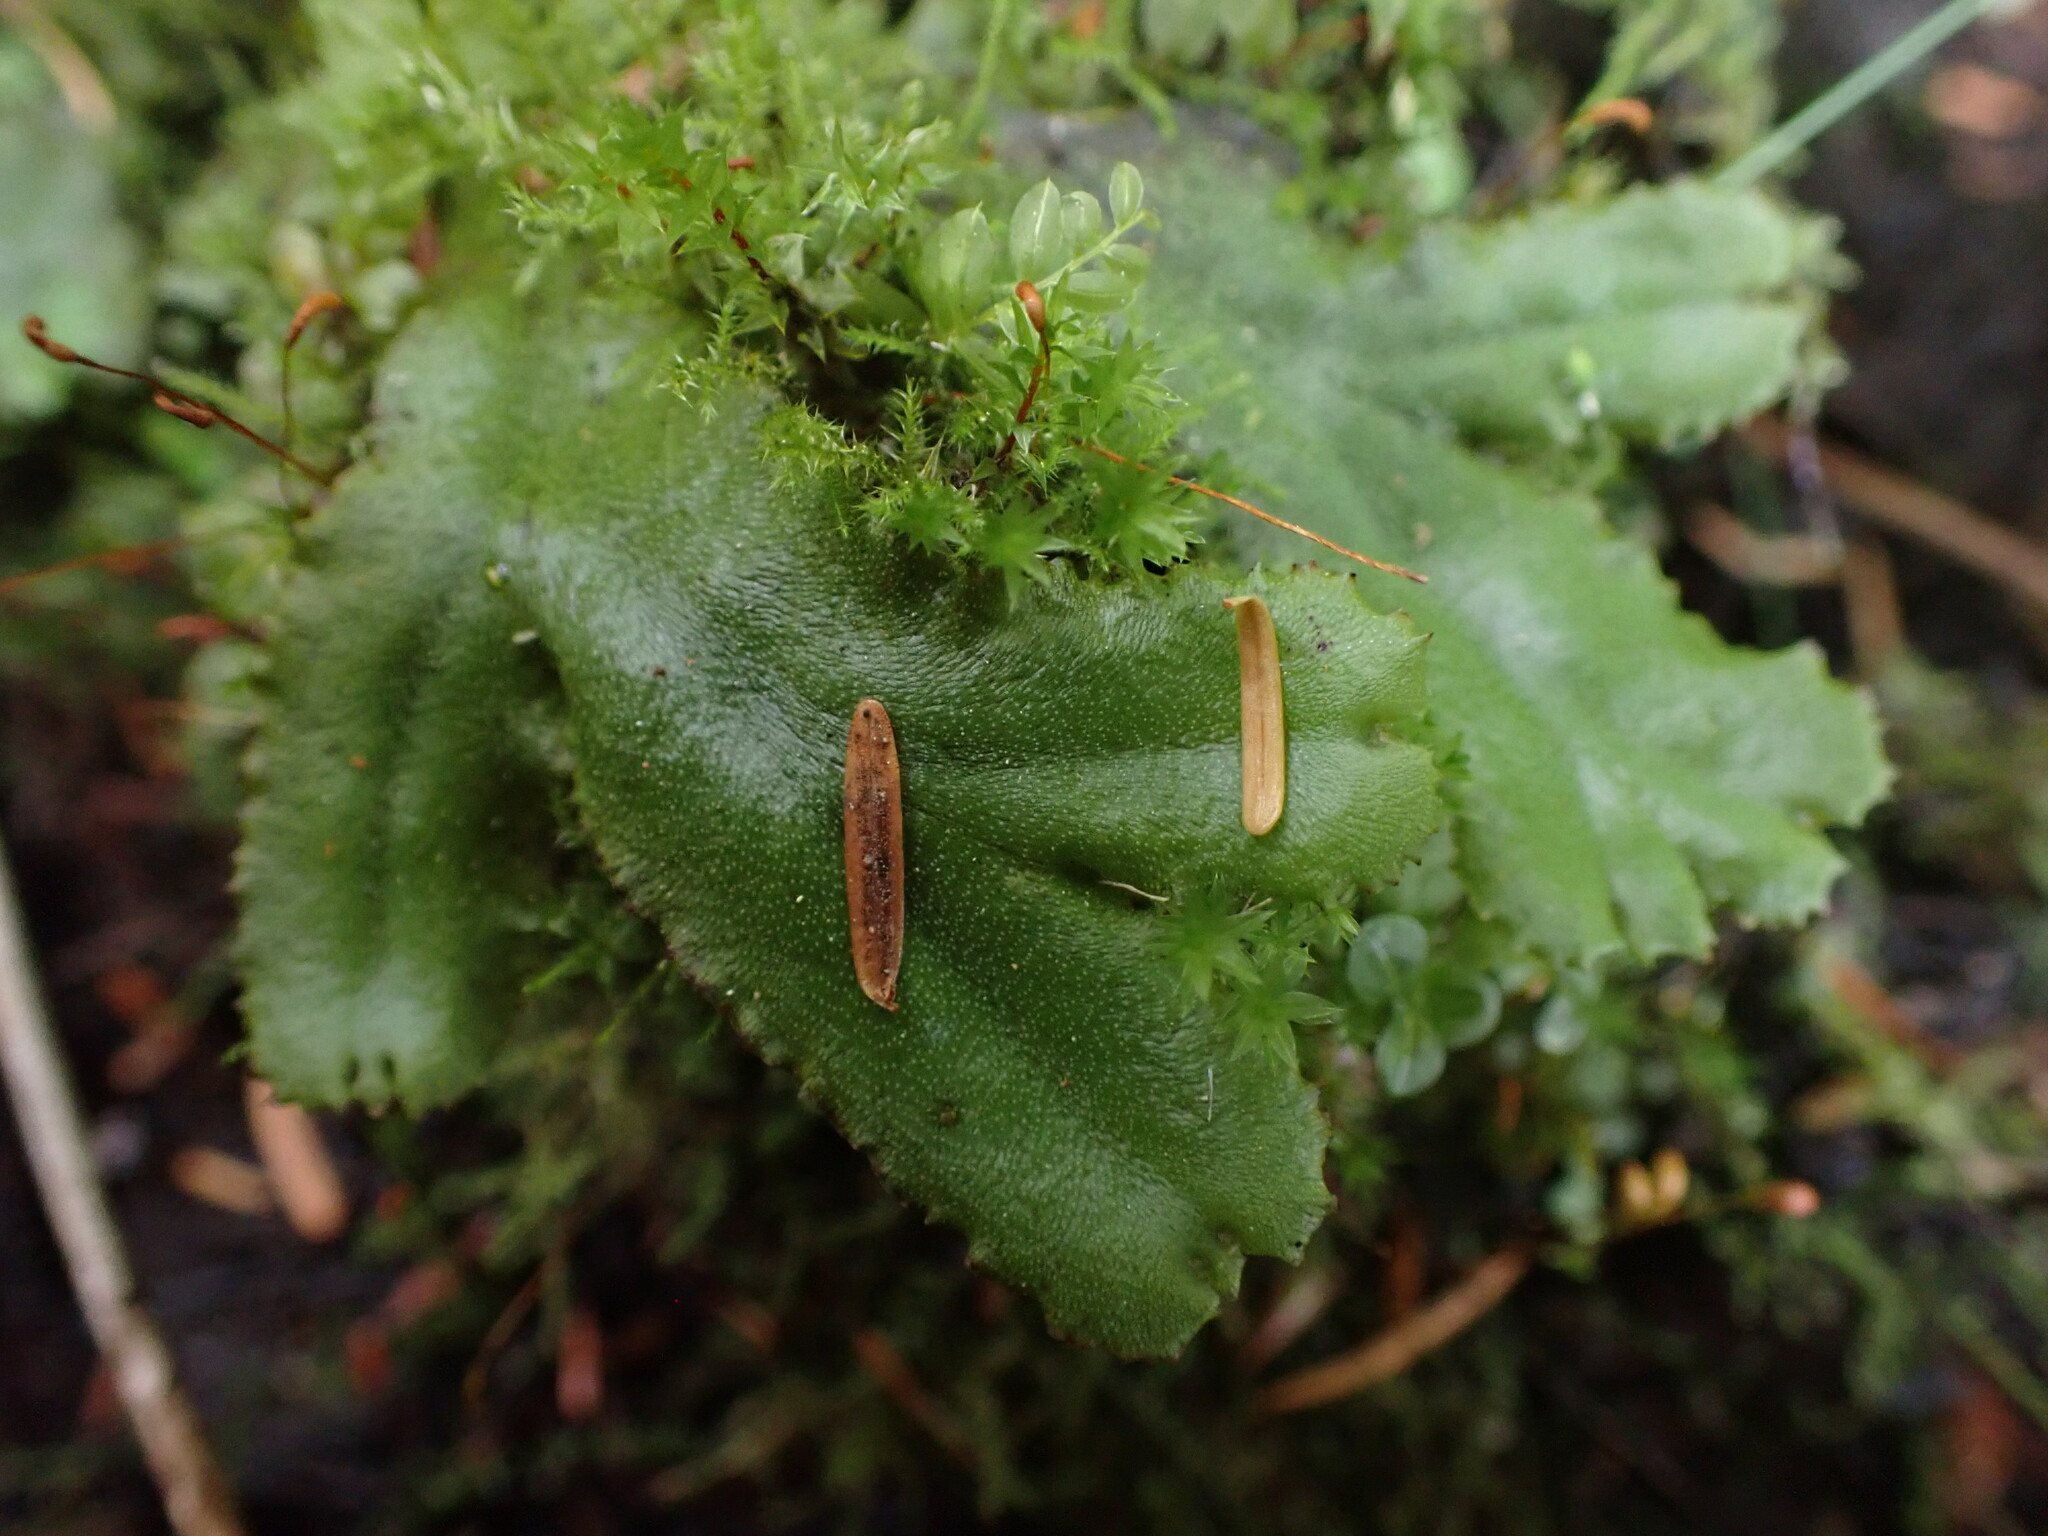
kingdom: Plantae
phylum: Marchantiophyta
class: Marchantiopsida
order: Marchantiales
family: Marchantiaceae
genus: Marchantia
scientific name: Marchantia polymorpha
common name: Common liverwort
